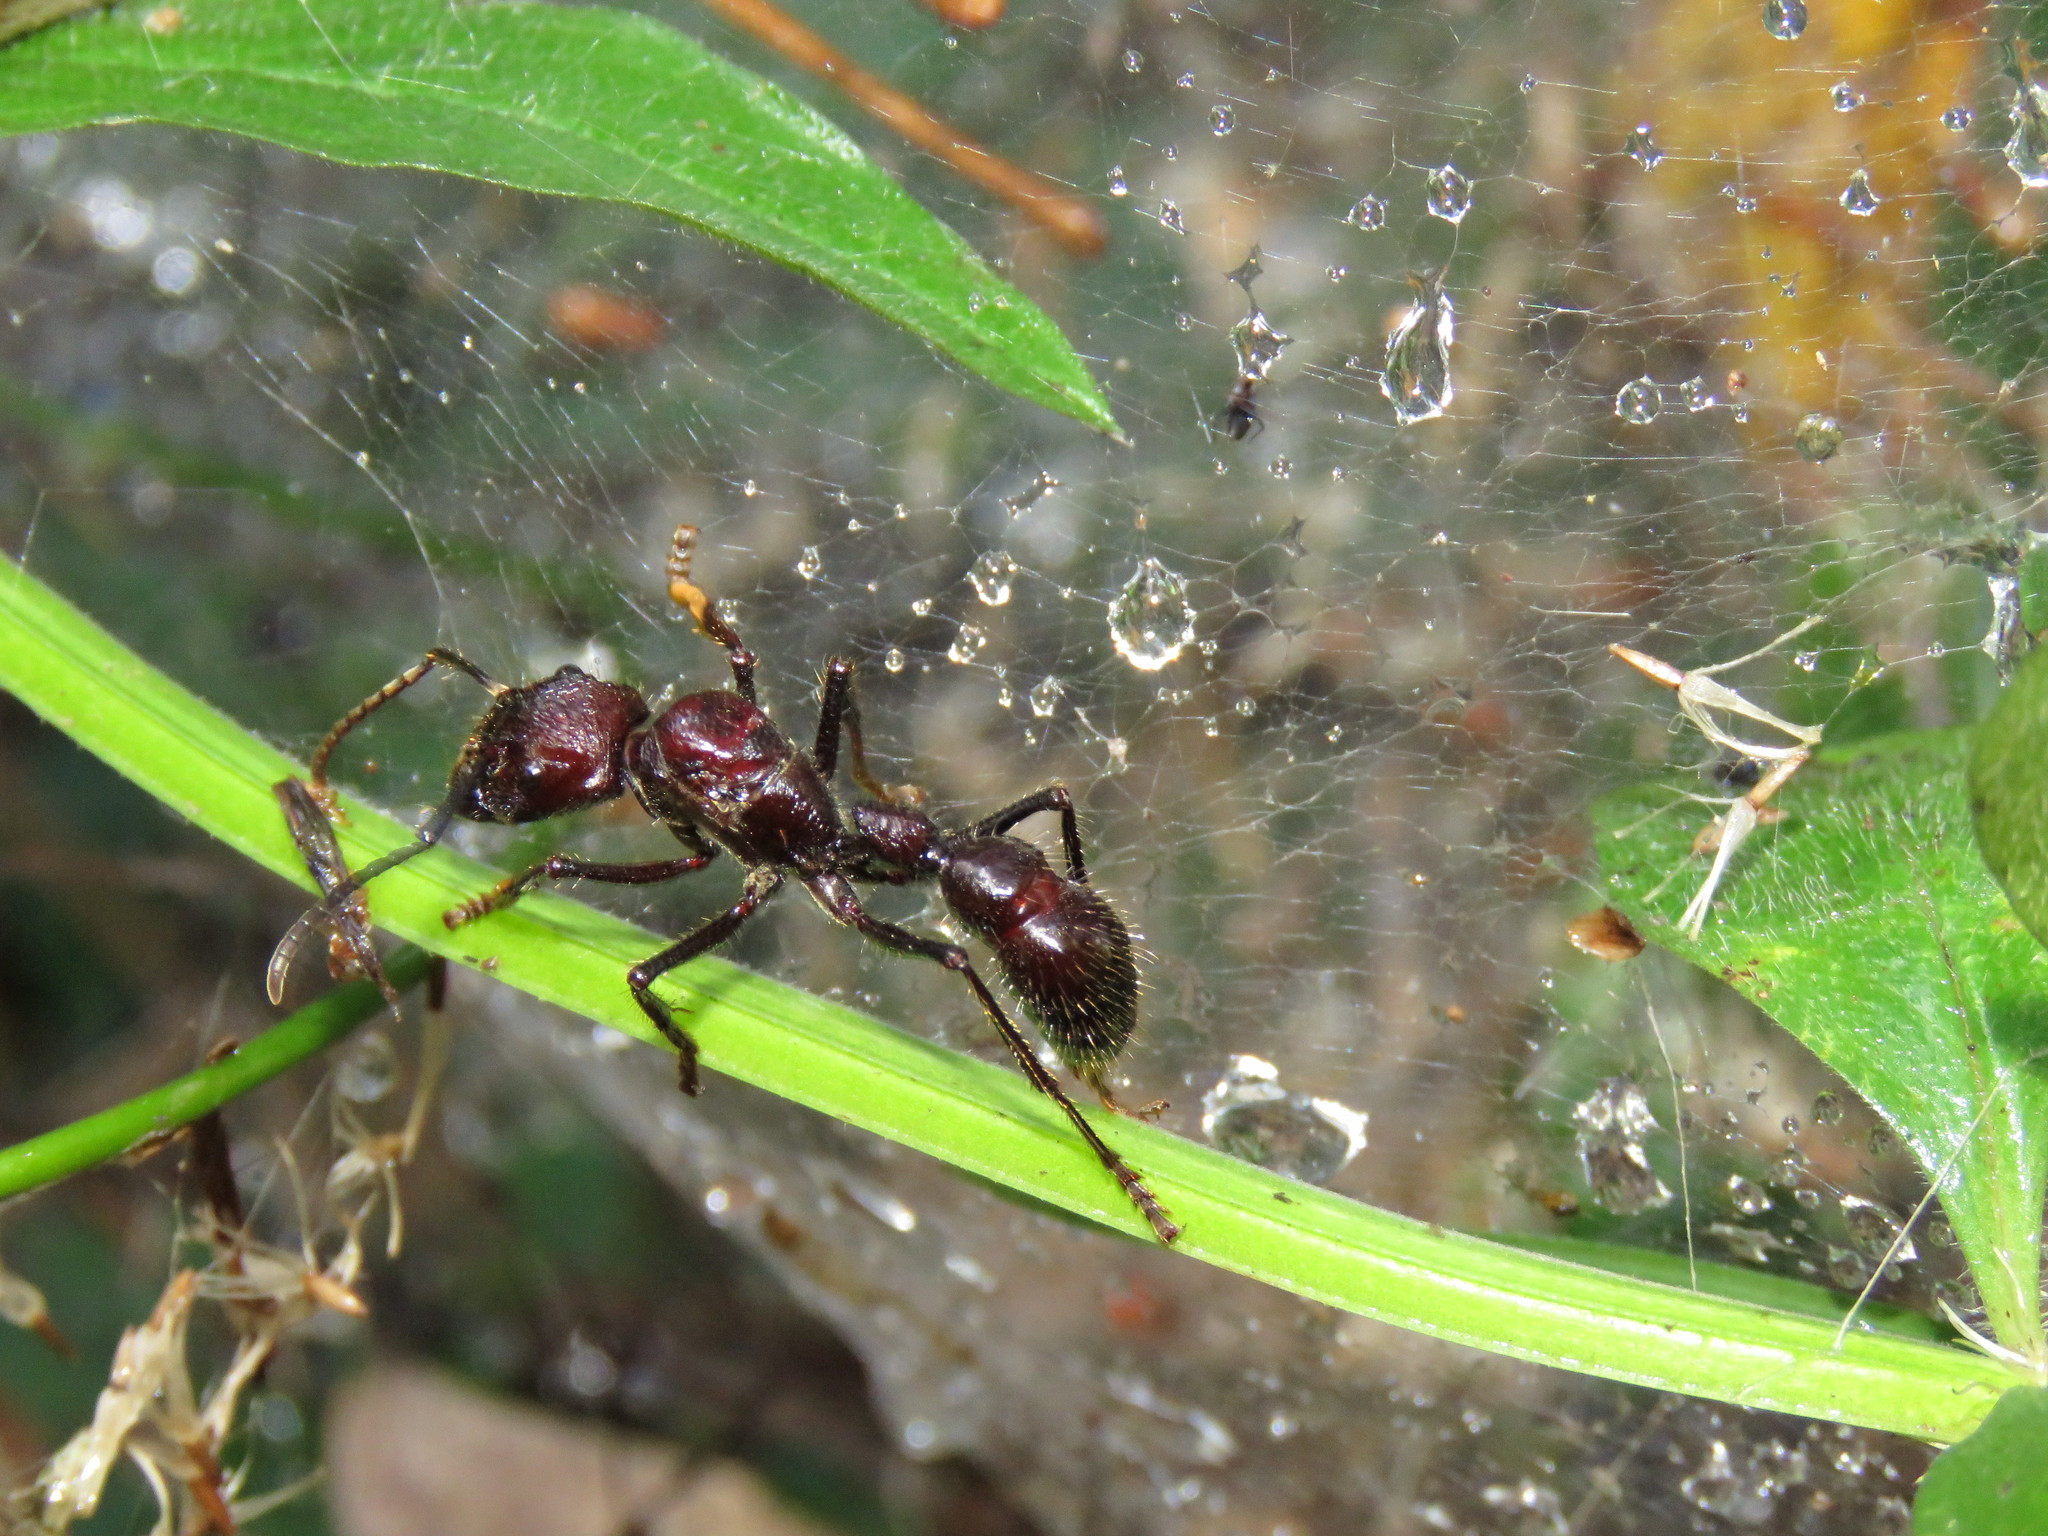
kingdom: Animalia
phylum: Arthropoda
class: Insecta
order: Hymenoptera
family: Formicidae
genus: Paraponera
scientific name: Paraponera clavata
